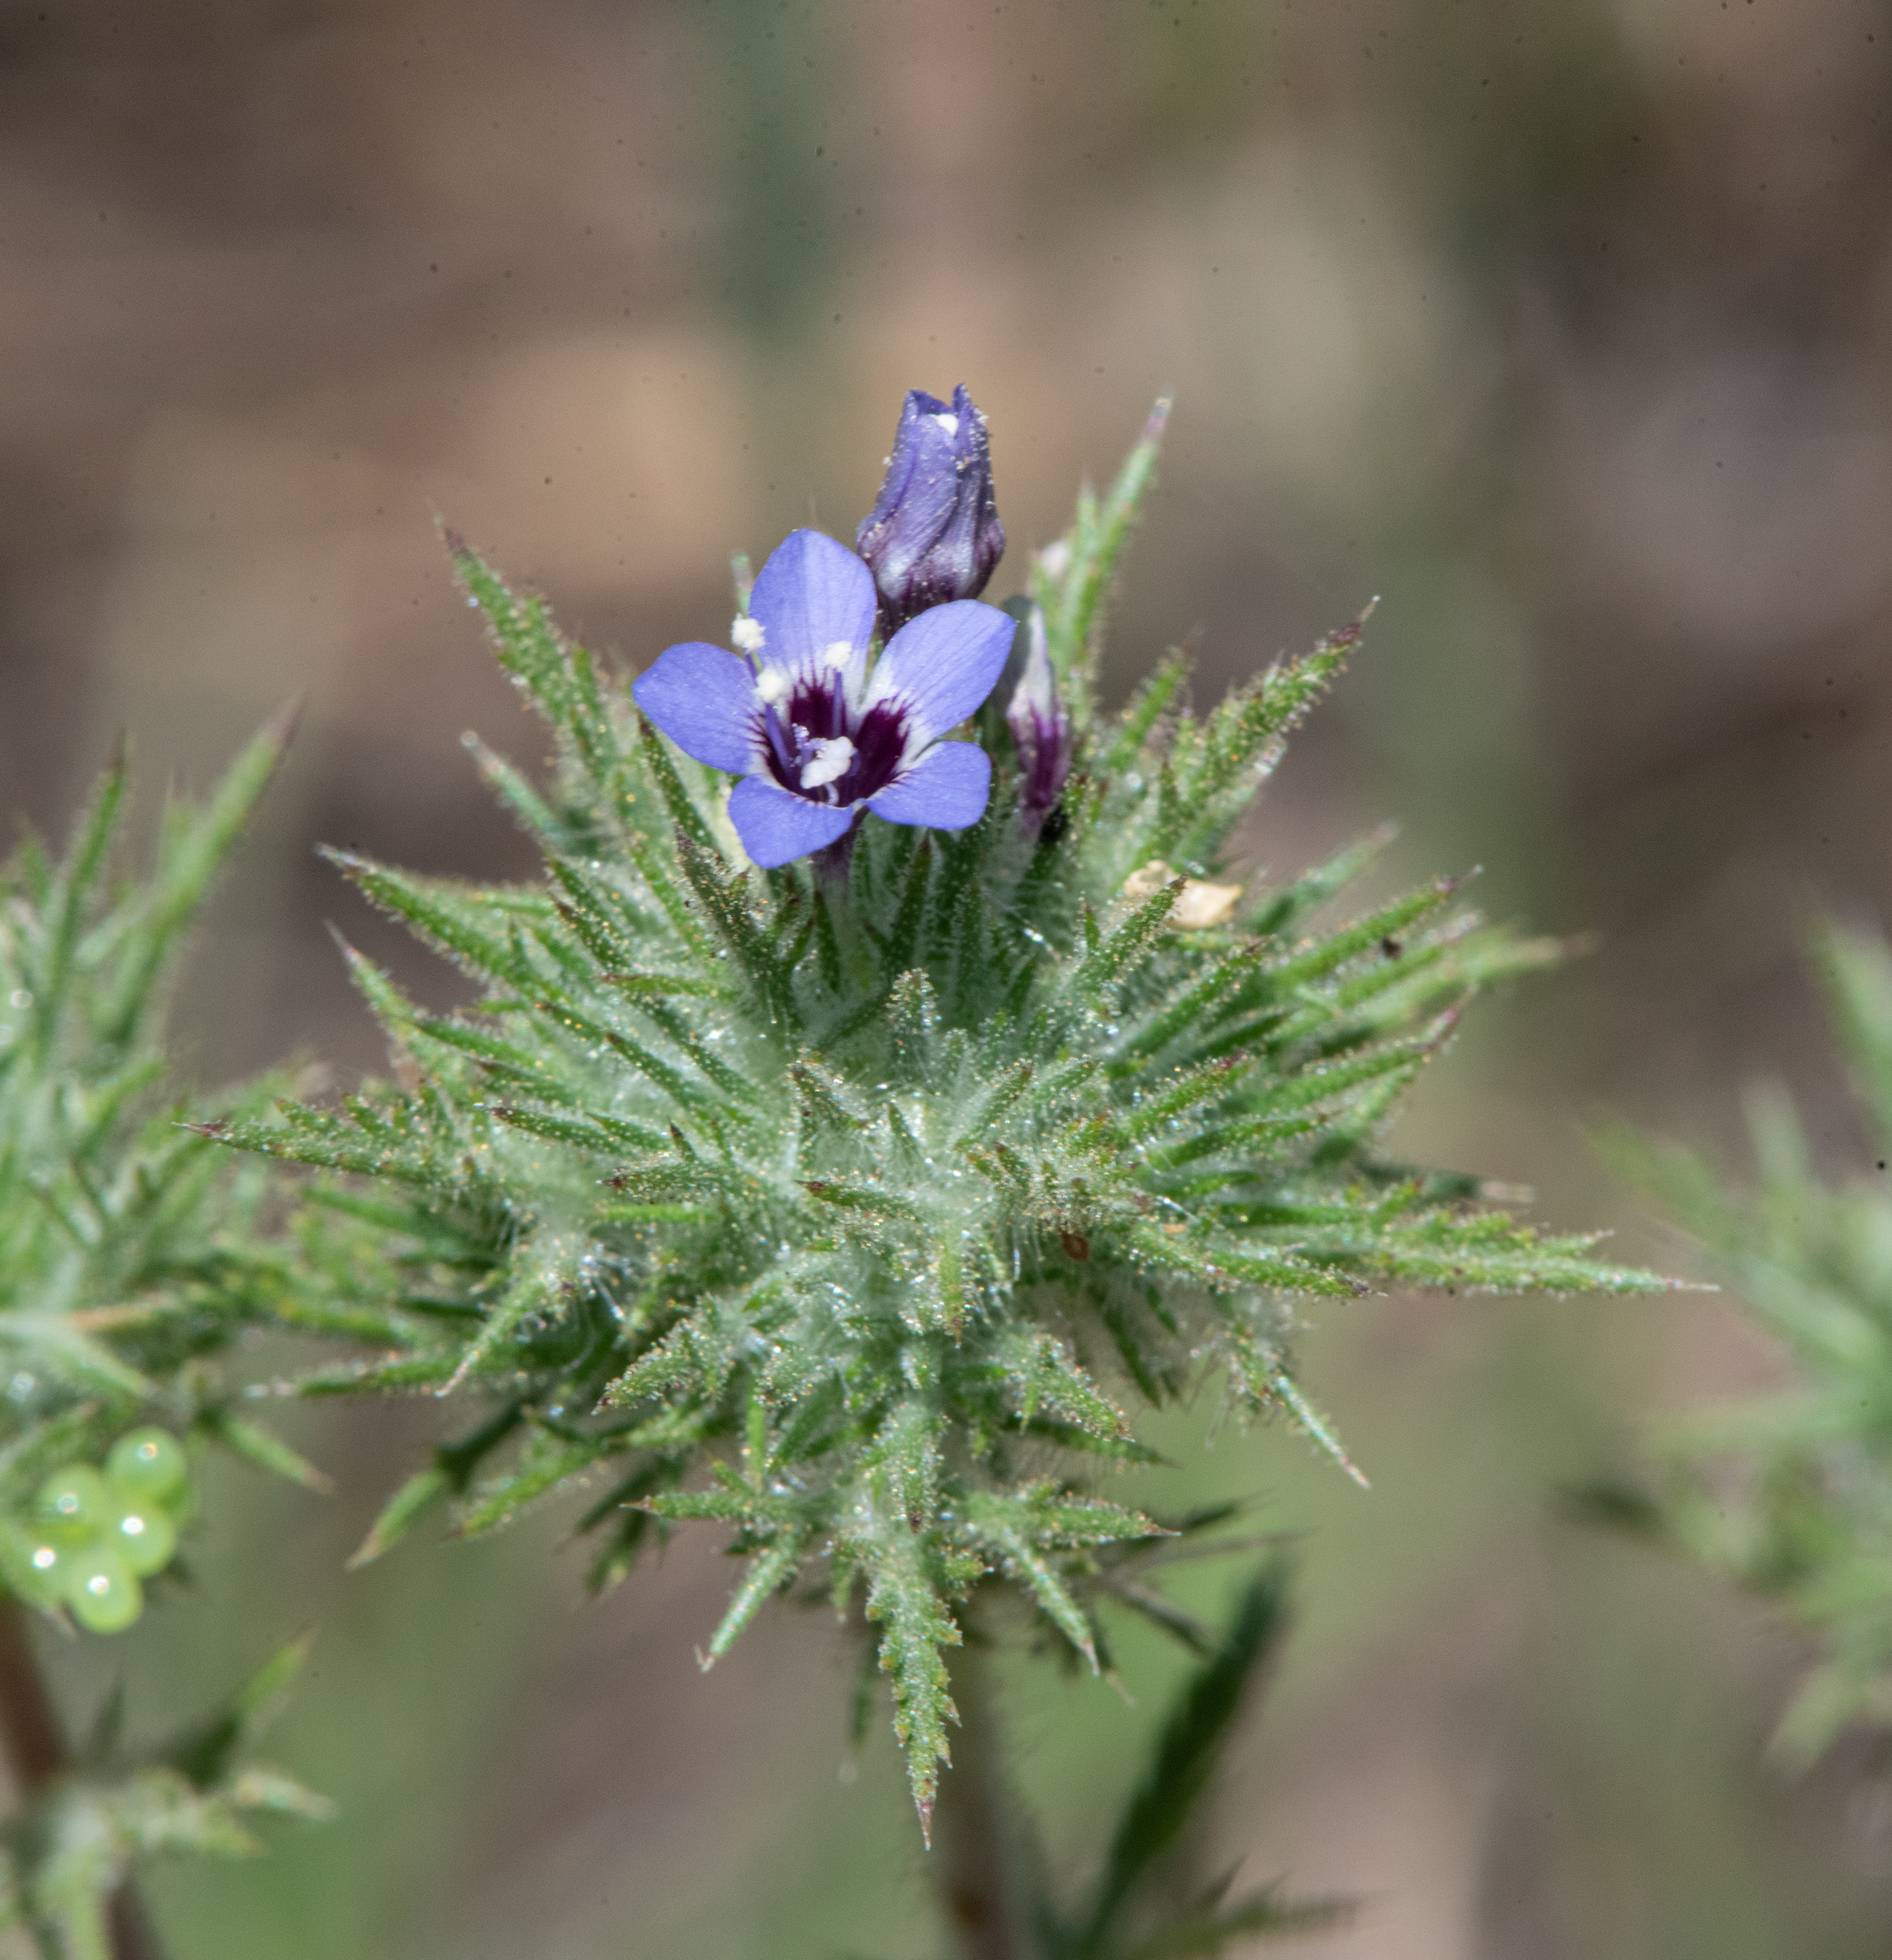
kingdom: Plantae
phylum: Tracheophyta
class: Magnoliopsida
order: Ericales
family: Polemoniaceae
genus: Navarretia
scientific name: Navarretia pubescens
